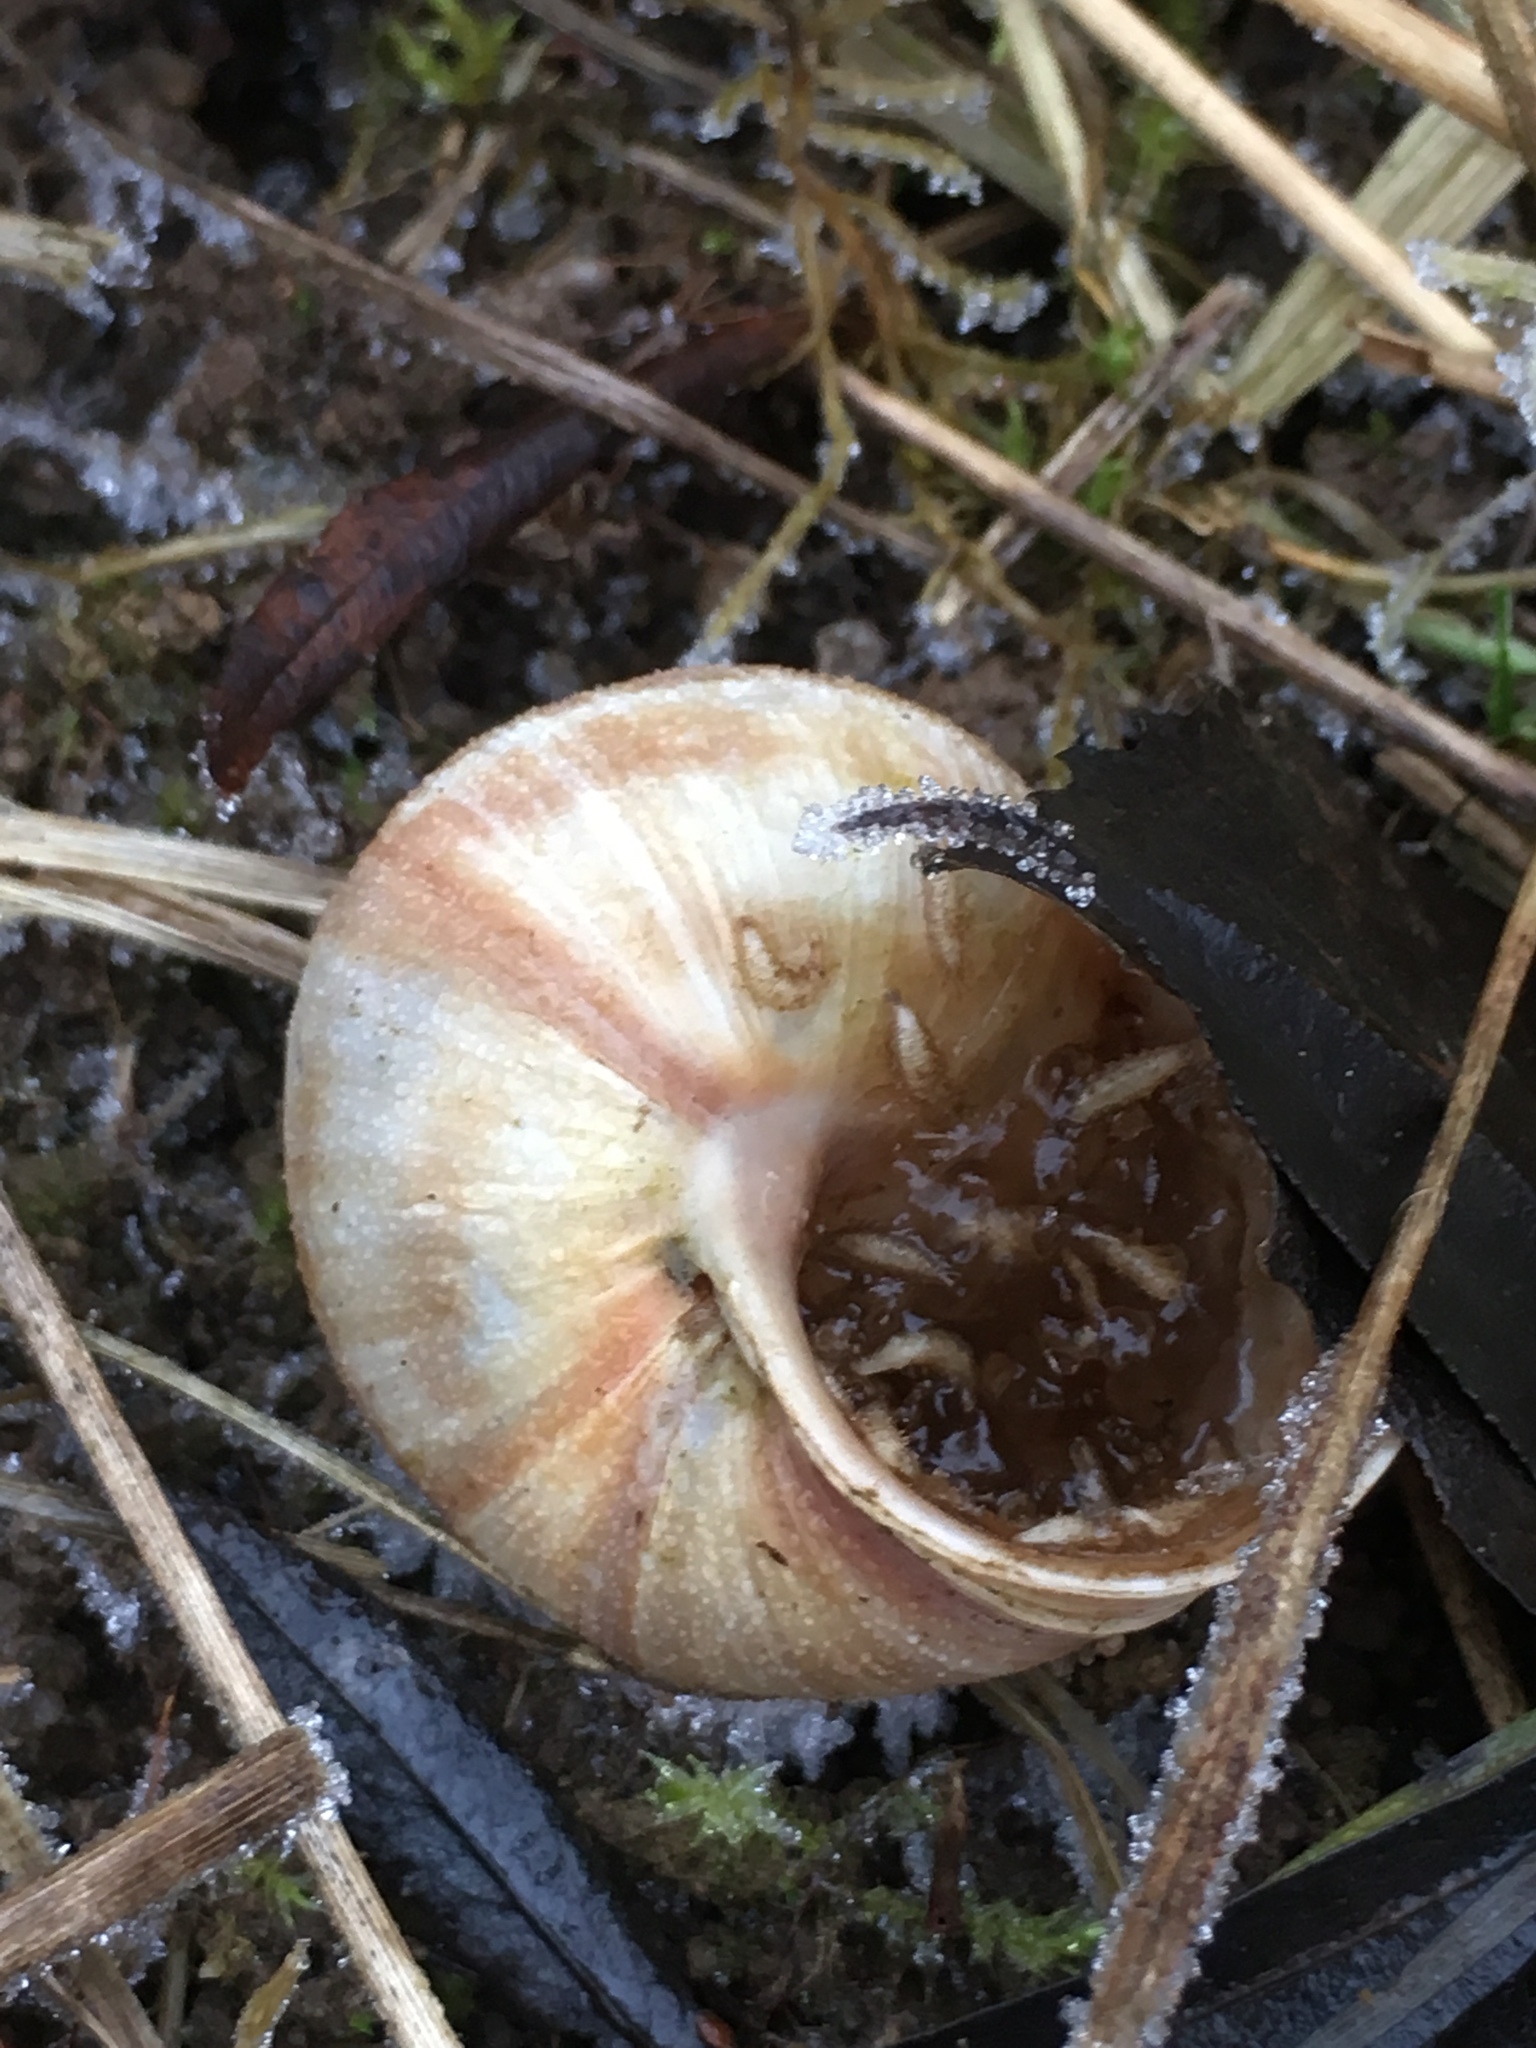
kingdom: Animalia
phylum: Mollusca
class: Gastropoda
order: Stylommatophora
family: Helicidae
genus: Helix
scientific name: Helix pomatia
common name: Roman snail
